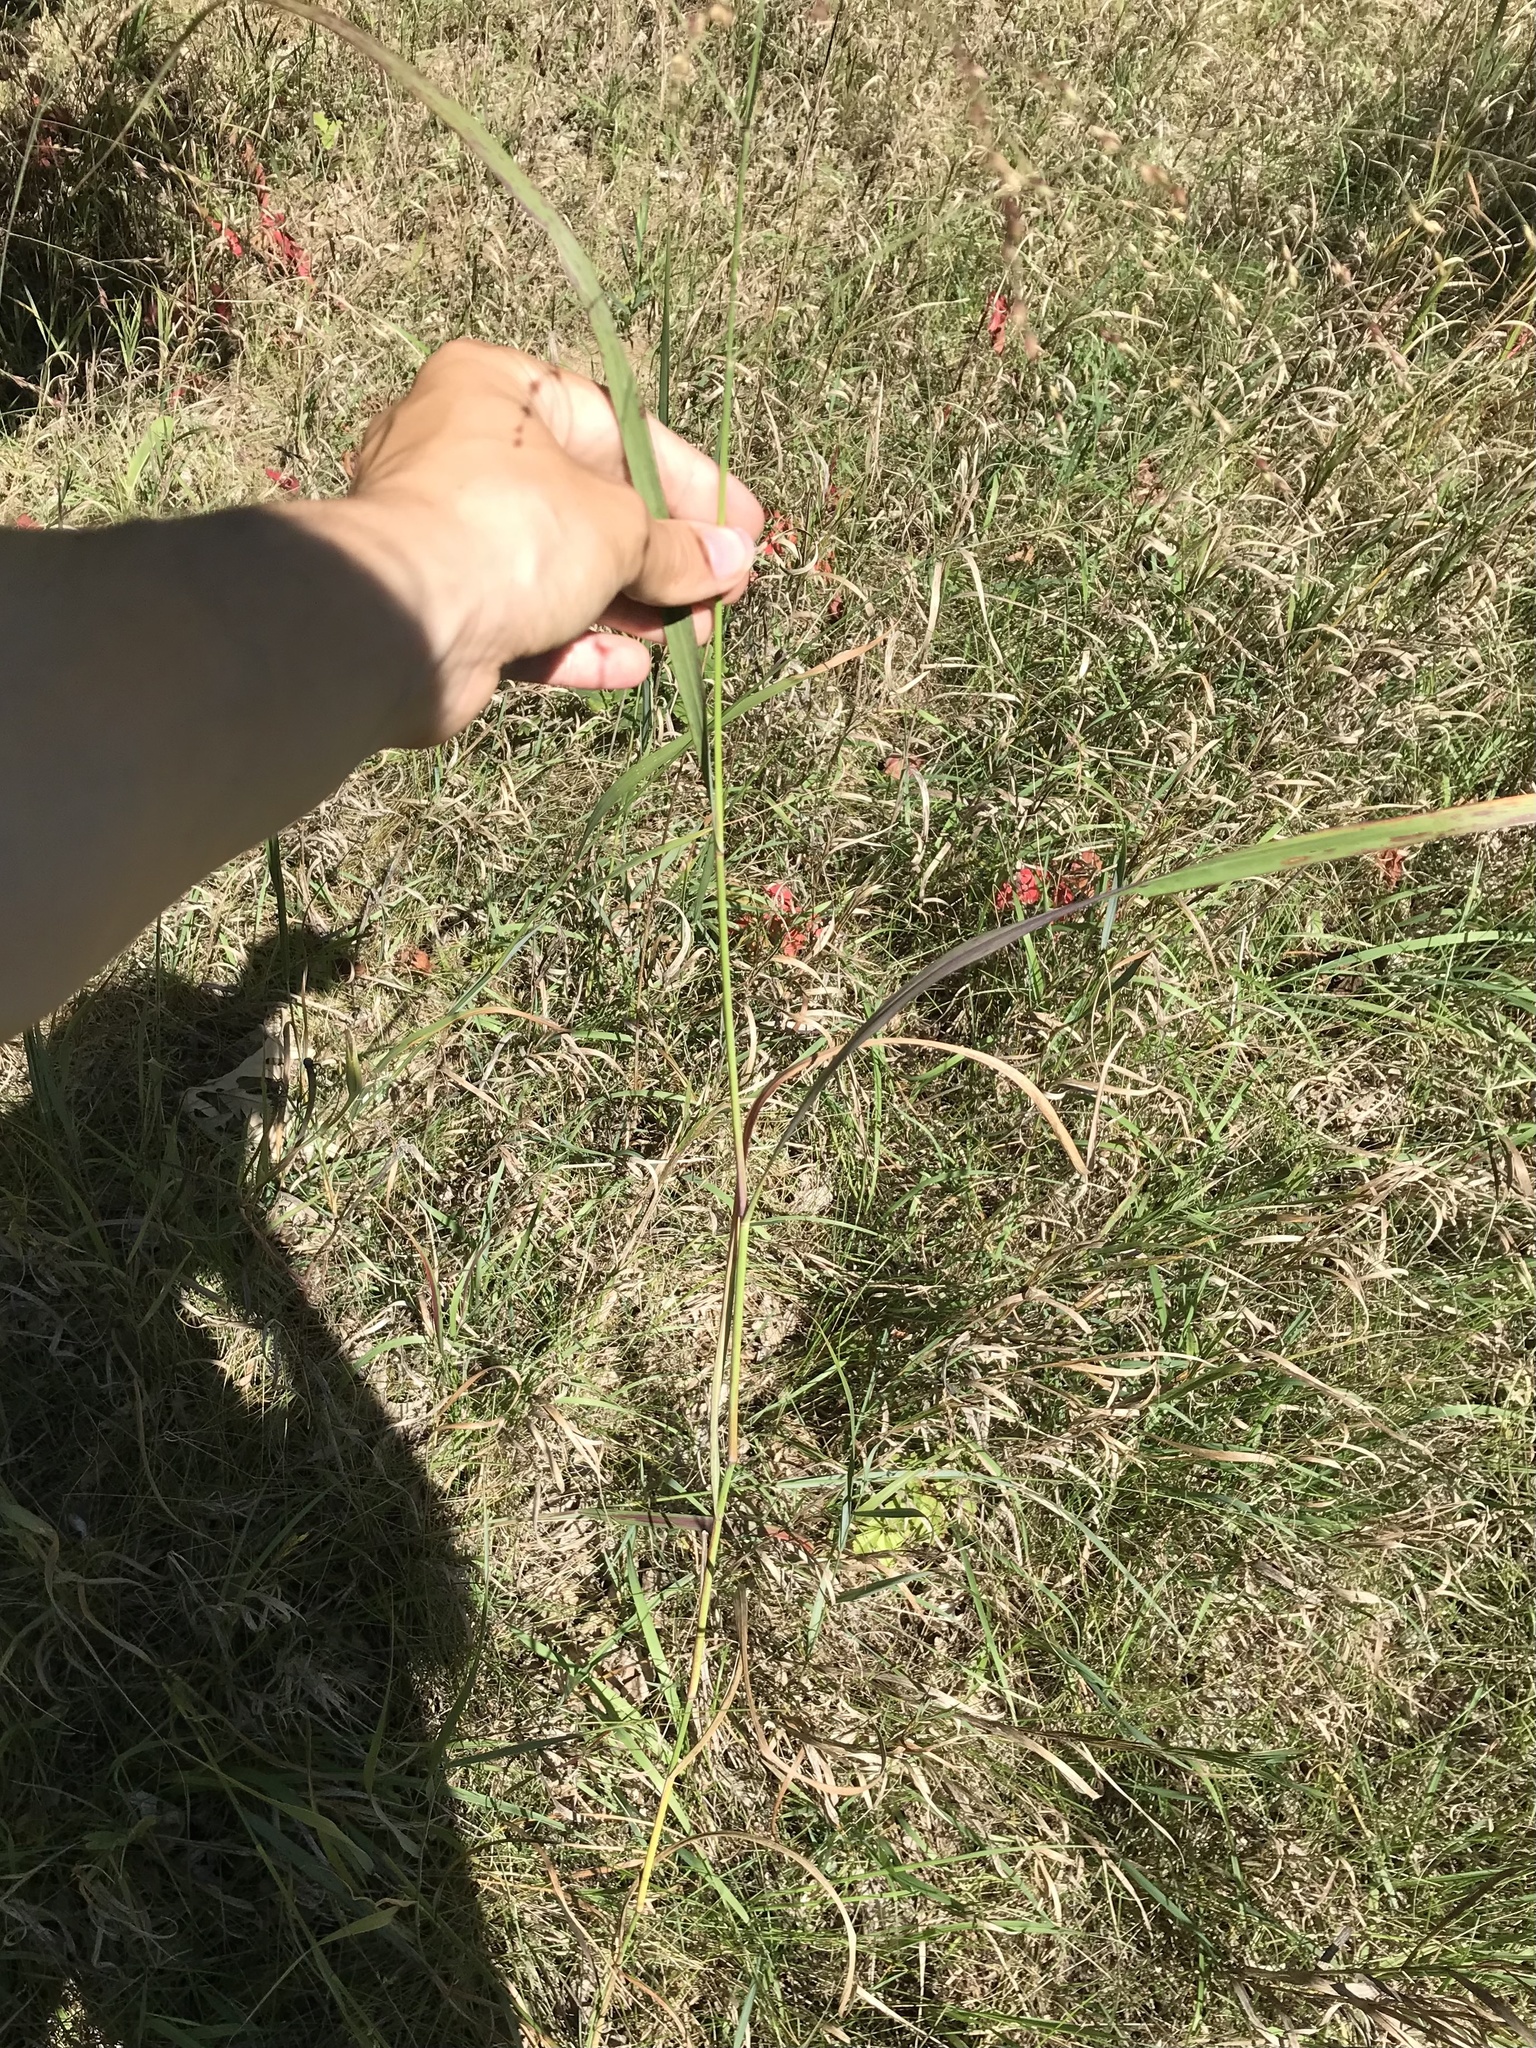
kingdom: Plantae
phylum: Tracheophyta
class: Liliopsida
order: Poales
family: Poaceae
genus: Panicum
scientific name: Panicum virgatum
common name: Switchgrass
